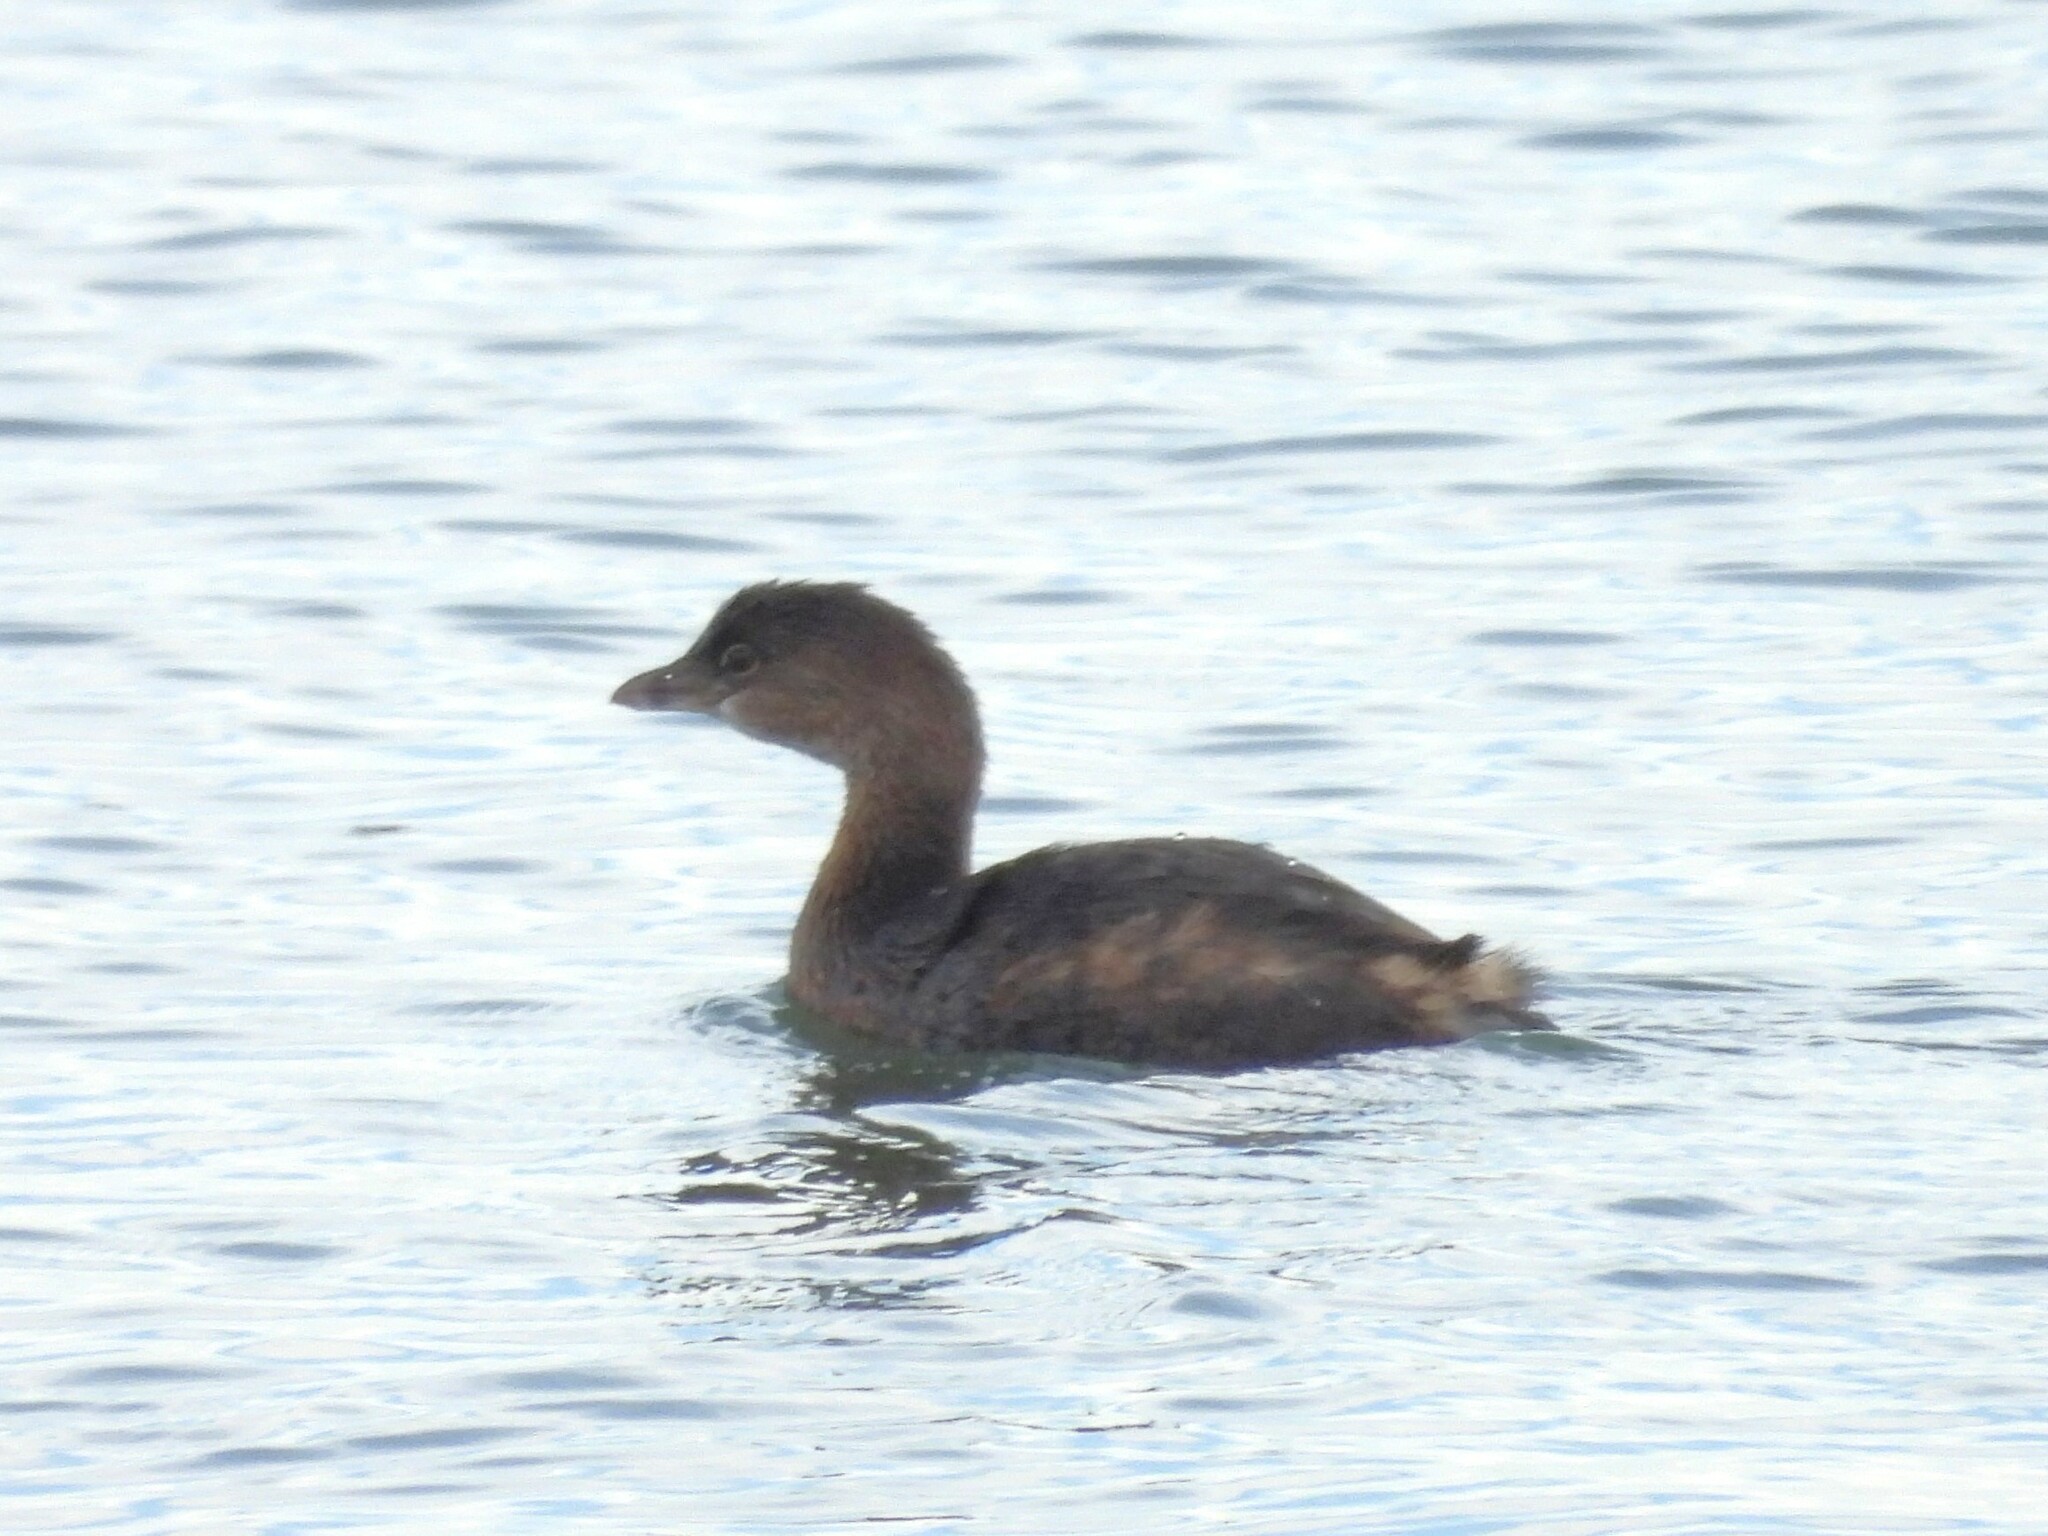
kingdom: Animalia
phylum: Chordata
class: Aves
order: Podicipediformes
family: Podicipedidae
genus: Podilymbus
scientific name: Podilymbus podiceps
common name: Pied-billed grebe
